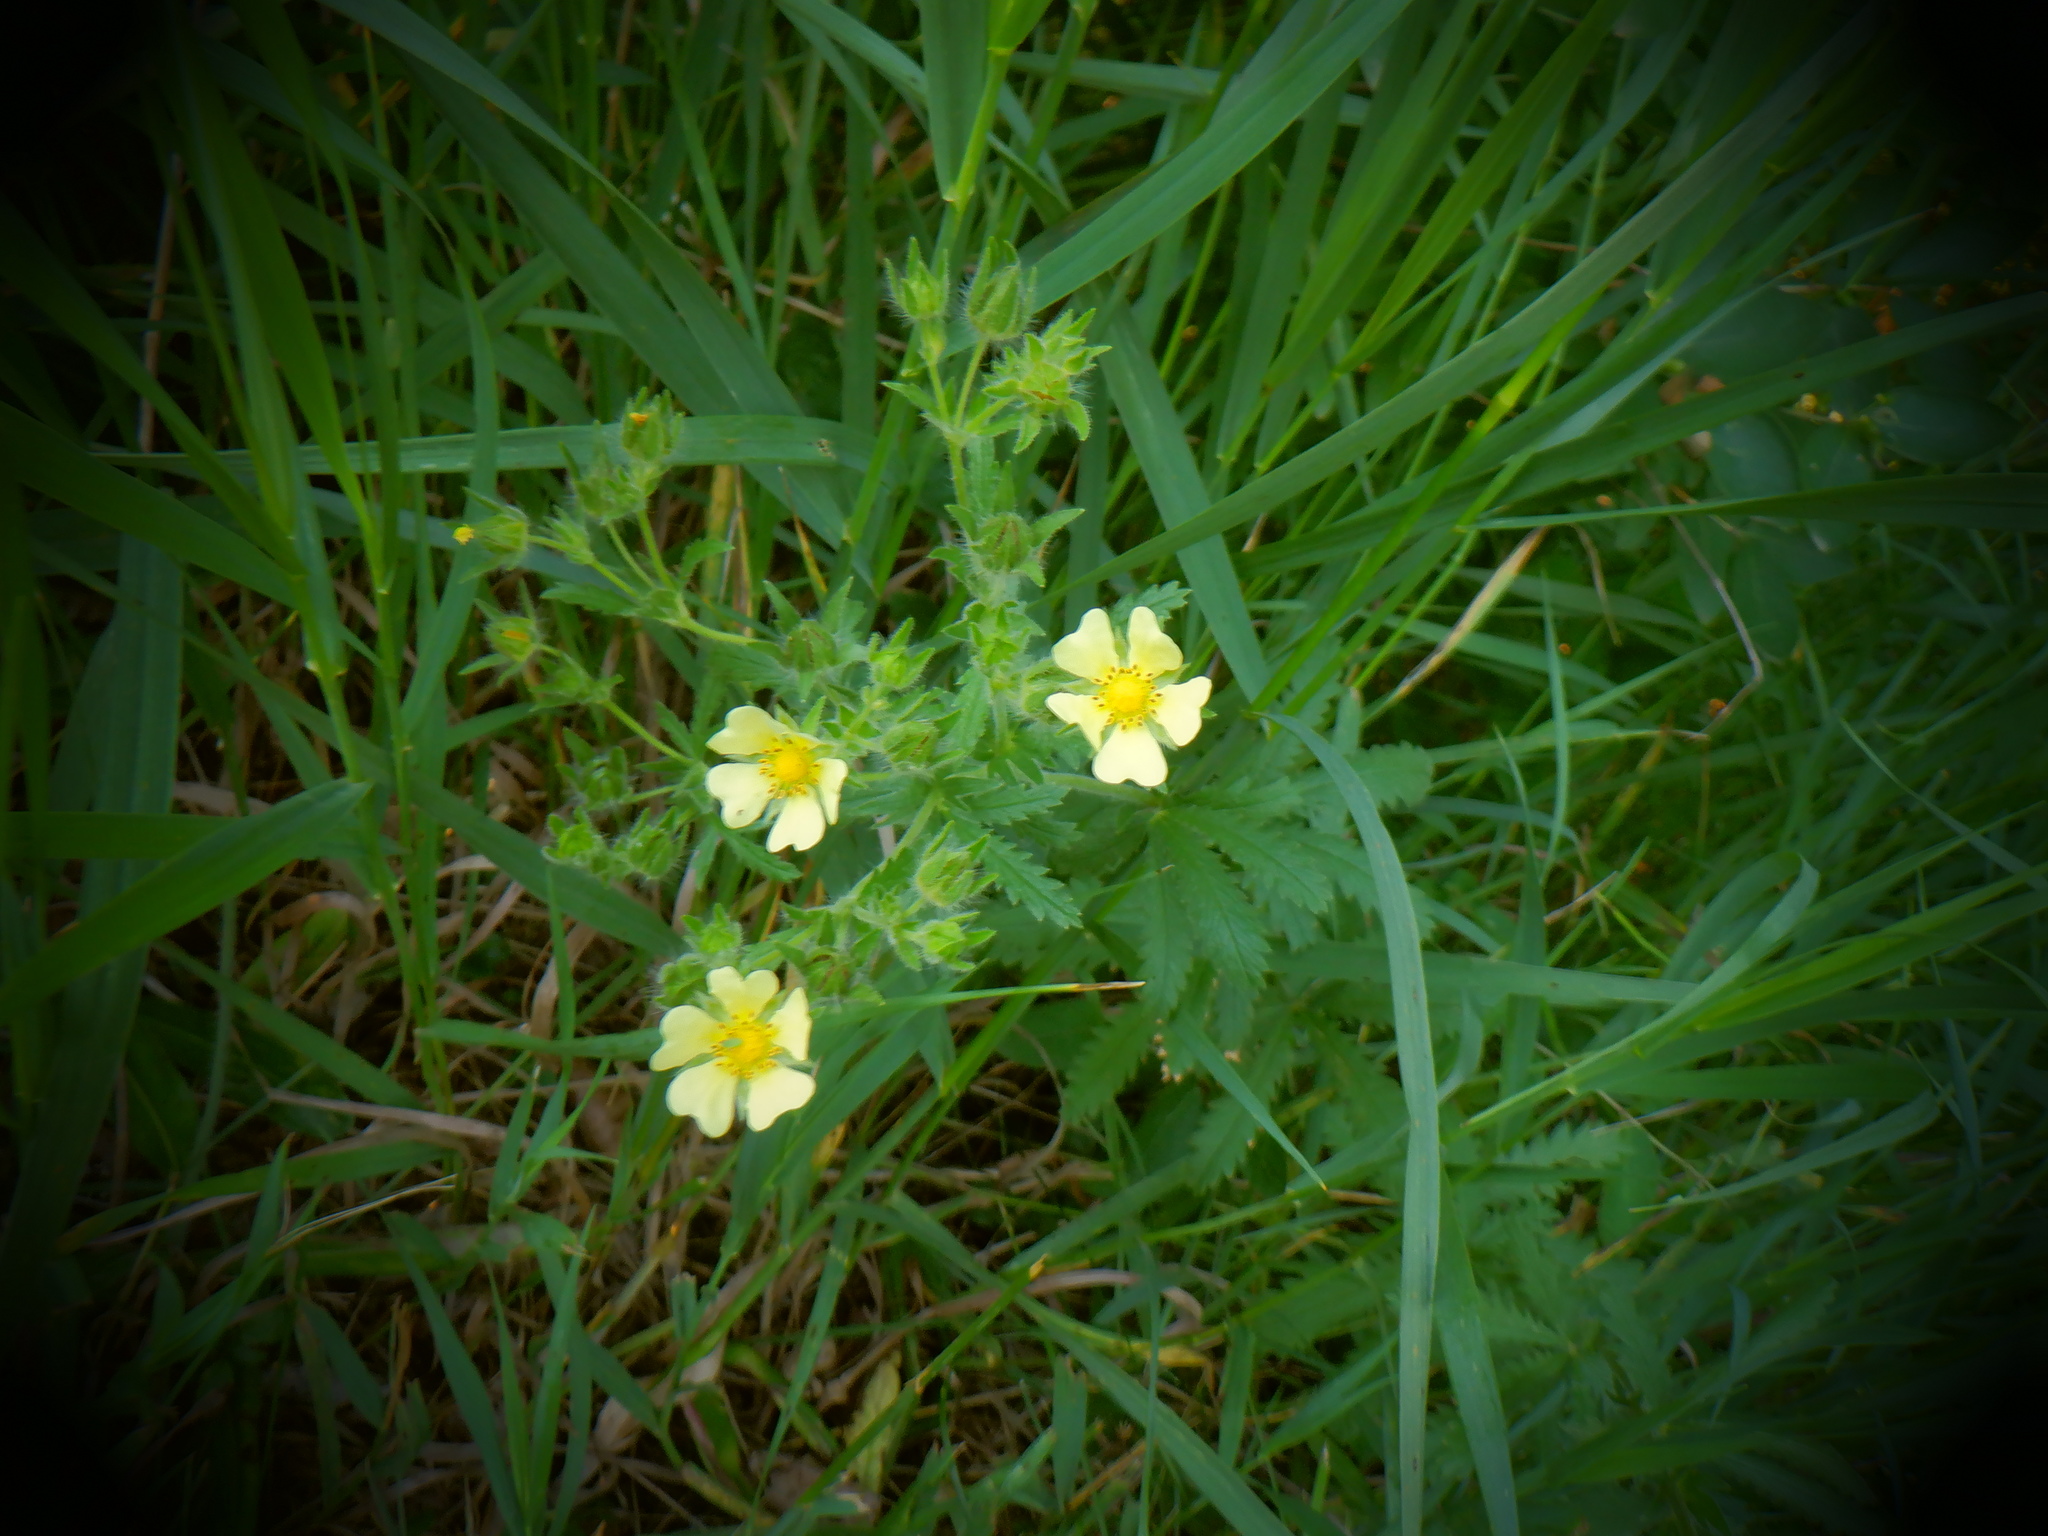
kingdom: Plantae
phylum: Tracheophyta
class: Magnoliopsida
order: Rosales
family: Rosaceae
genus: Potentilla
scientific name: Potentilla recta
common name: Sulphur cinquefoil
